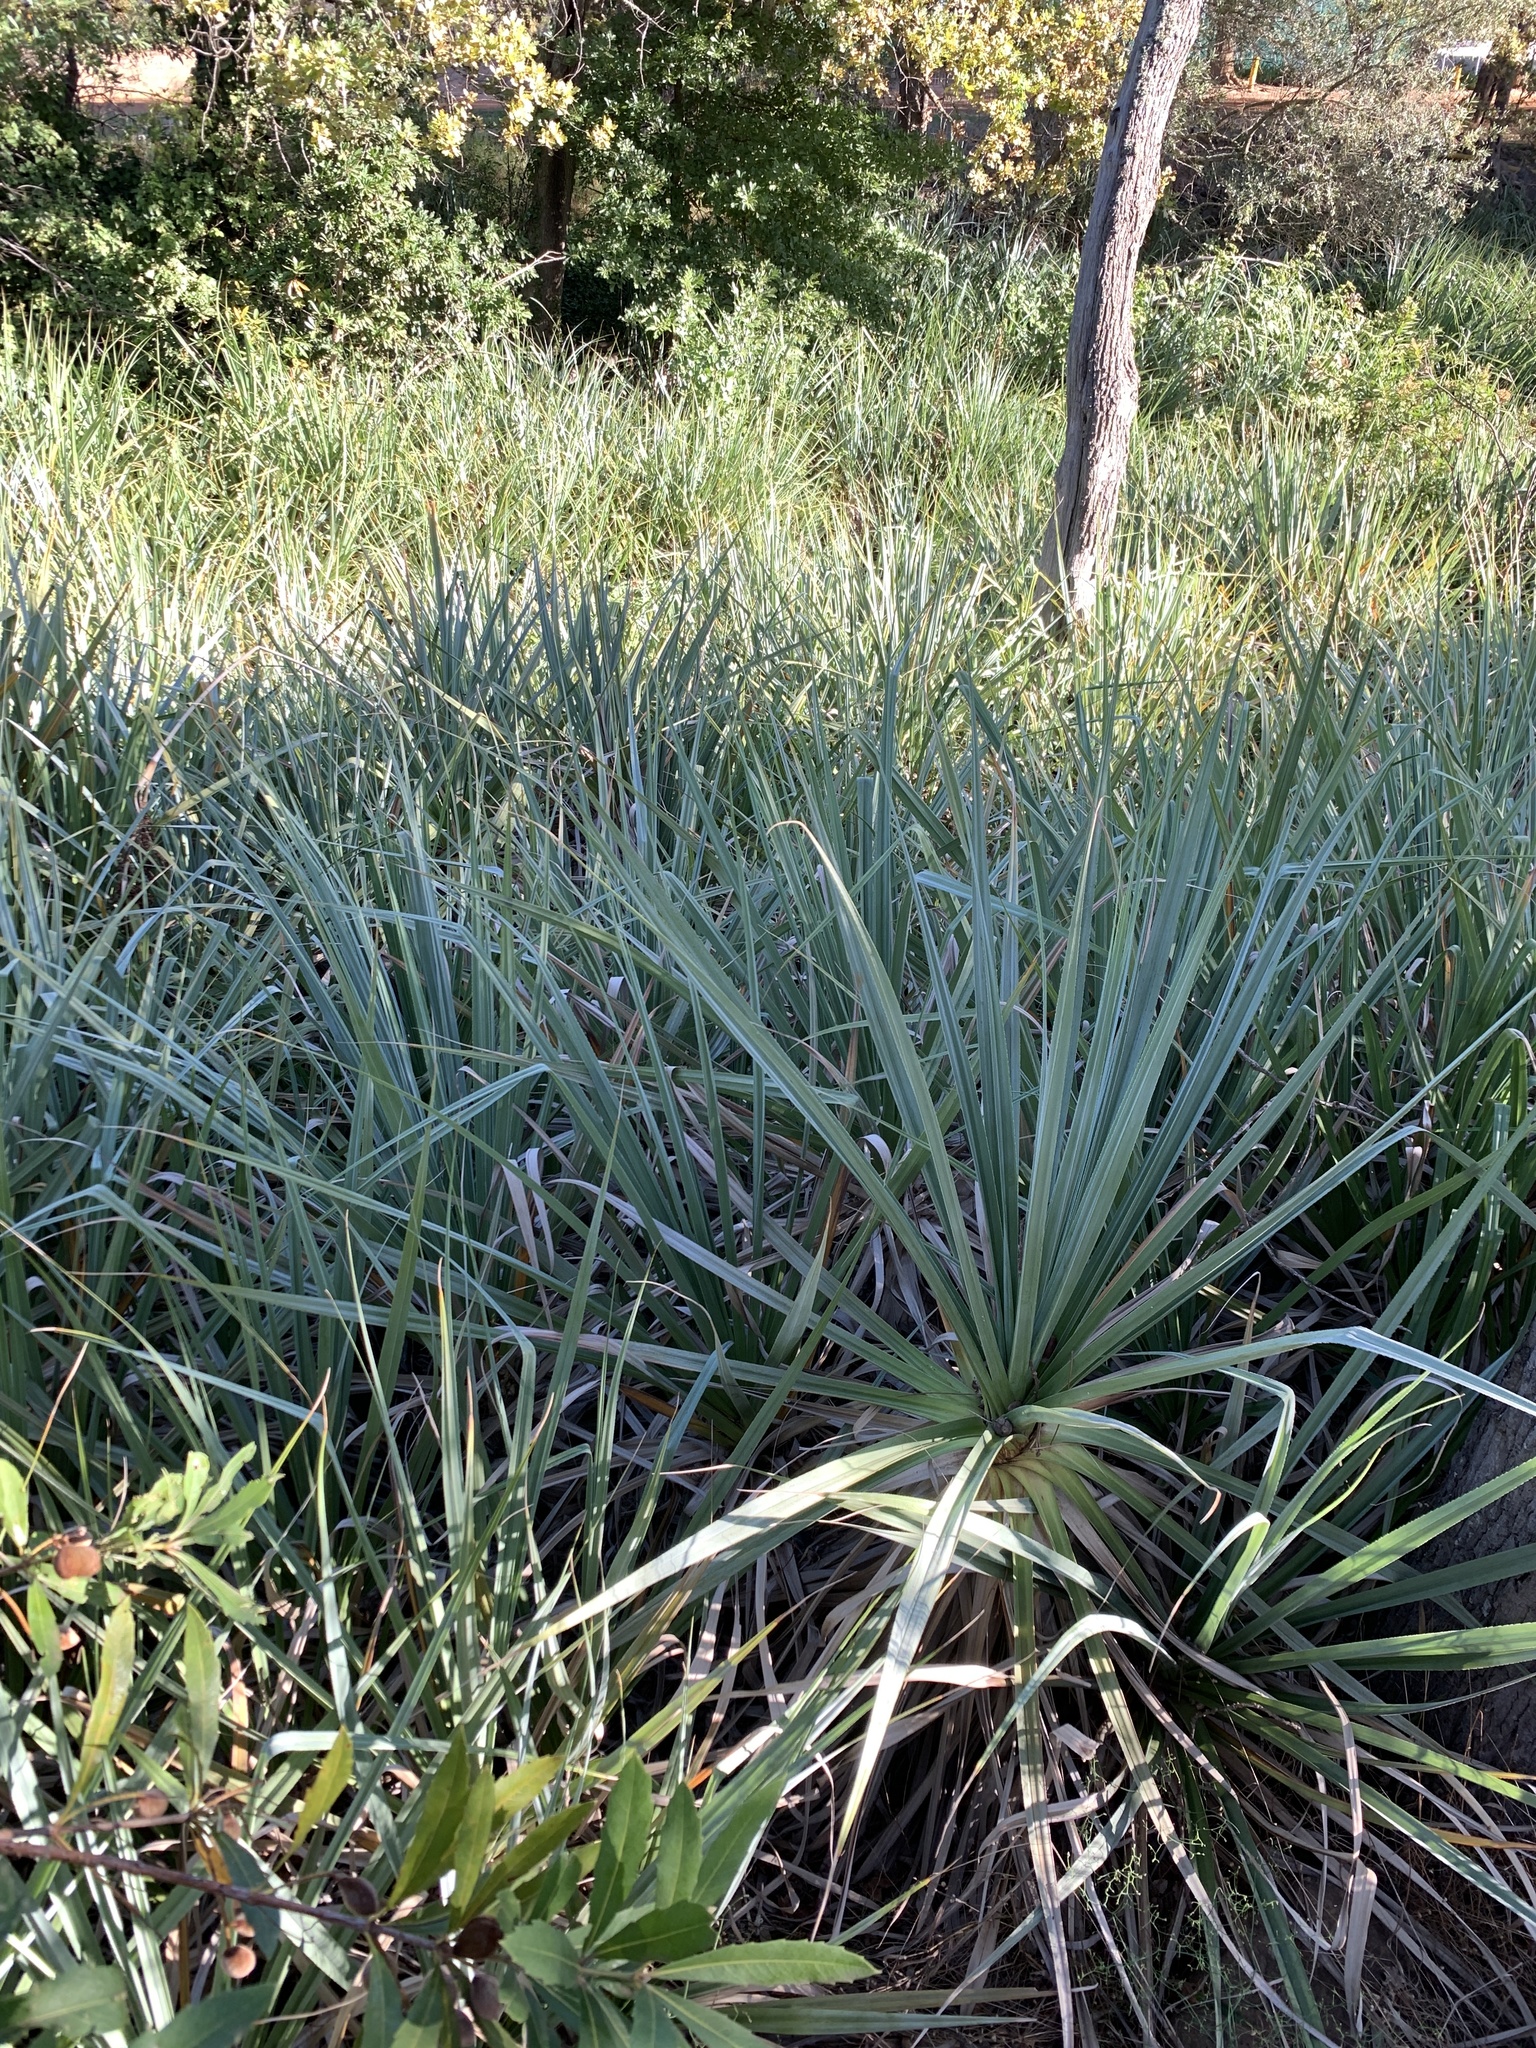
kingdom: Plantae
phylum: Tracheophyta
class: Liliopsida
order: Poales
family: Thurniaceae
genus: Prionium
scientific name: Prionium serratum
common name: Palmiet
